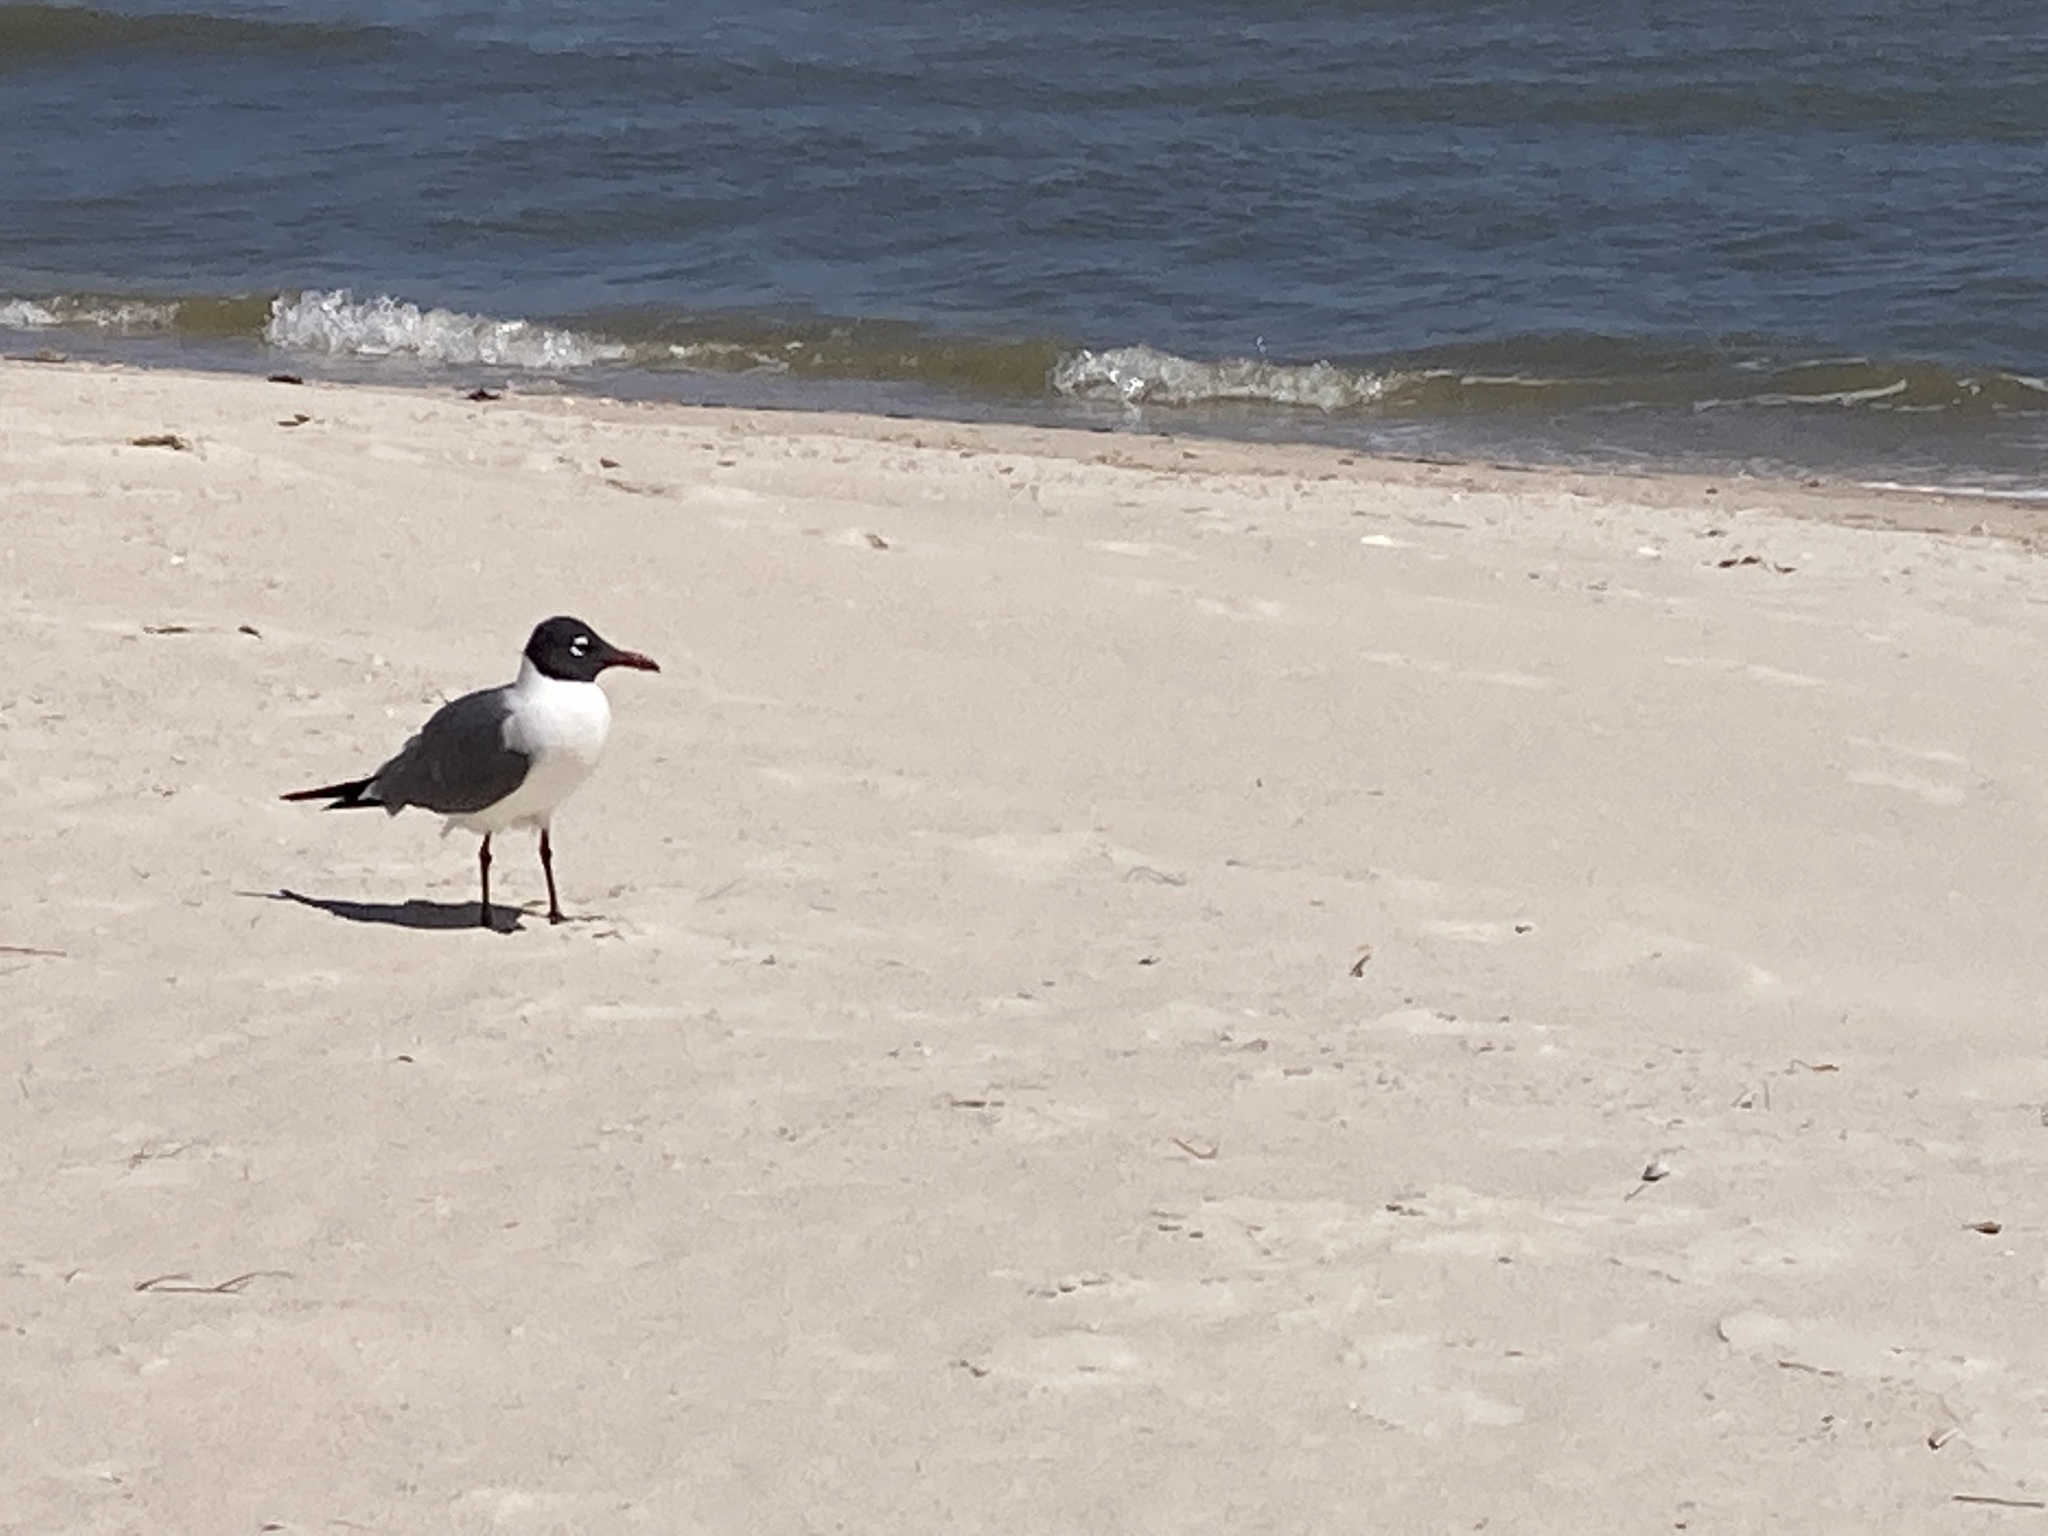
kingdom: Animalia
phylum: Chordata
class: Aves
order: Charadriiformes
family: Laridae
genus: Leucophaeus
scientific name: Leucophaeus atricilla
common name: Laughing gull
